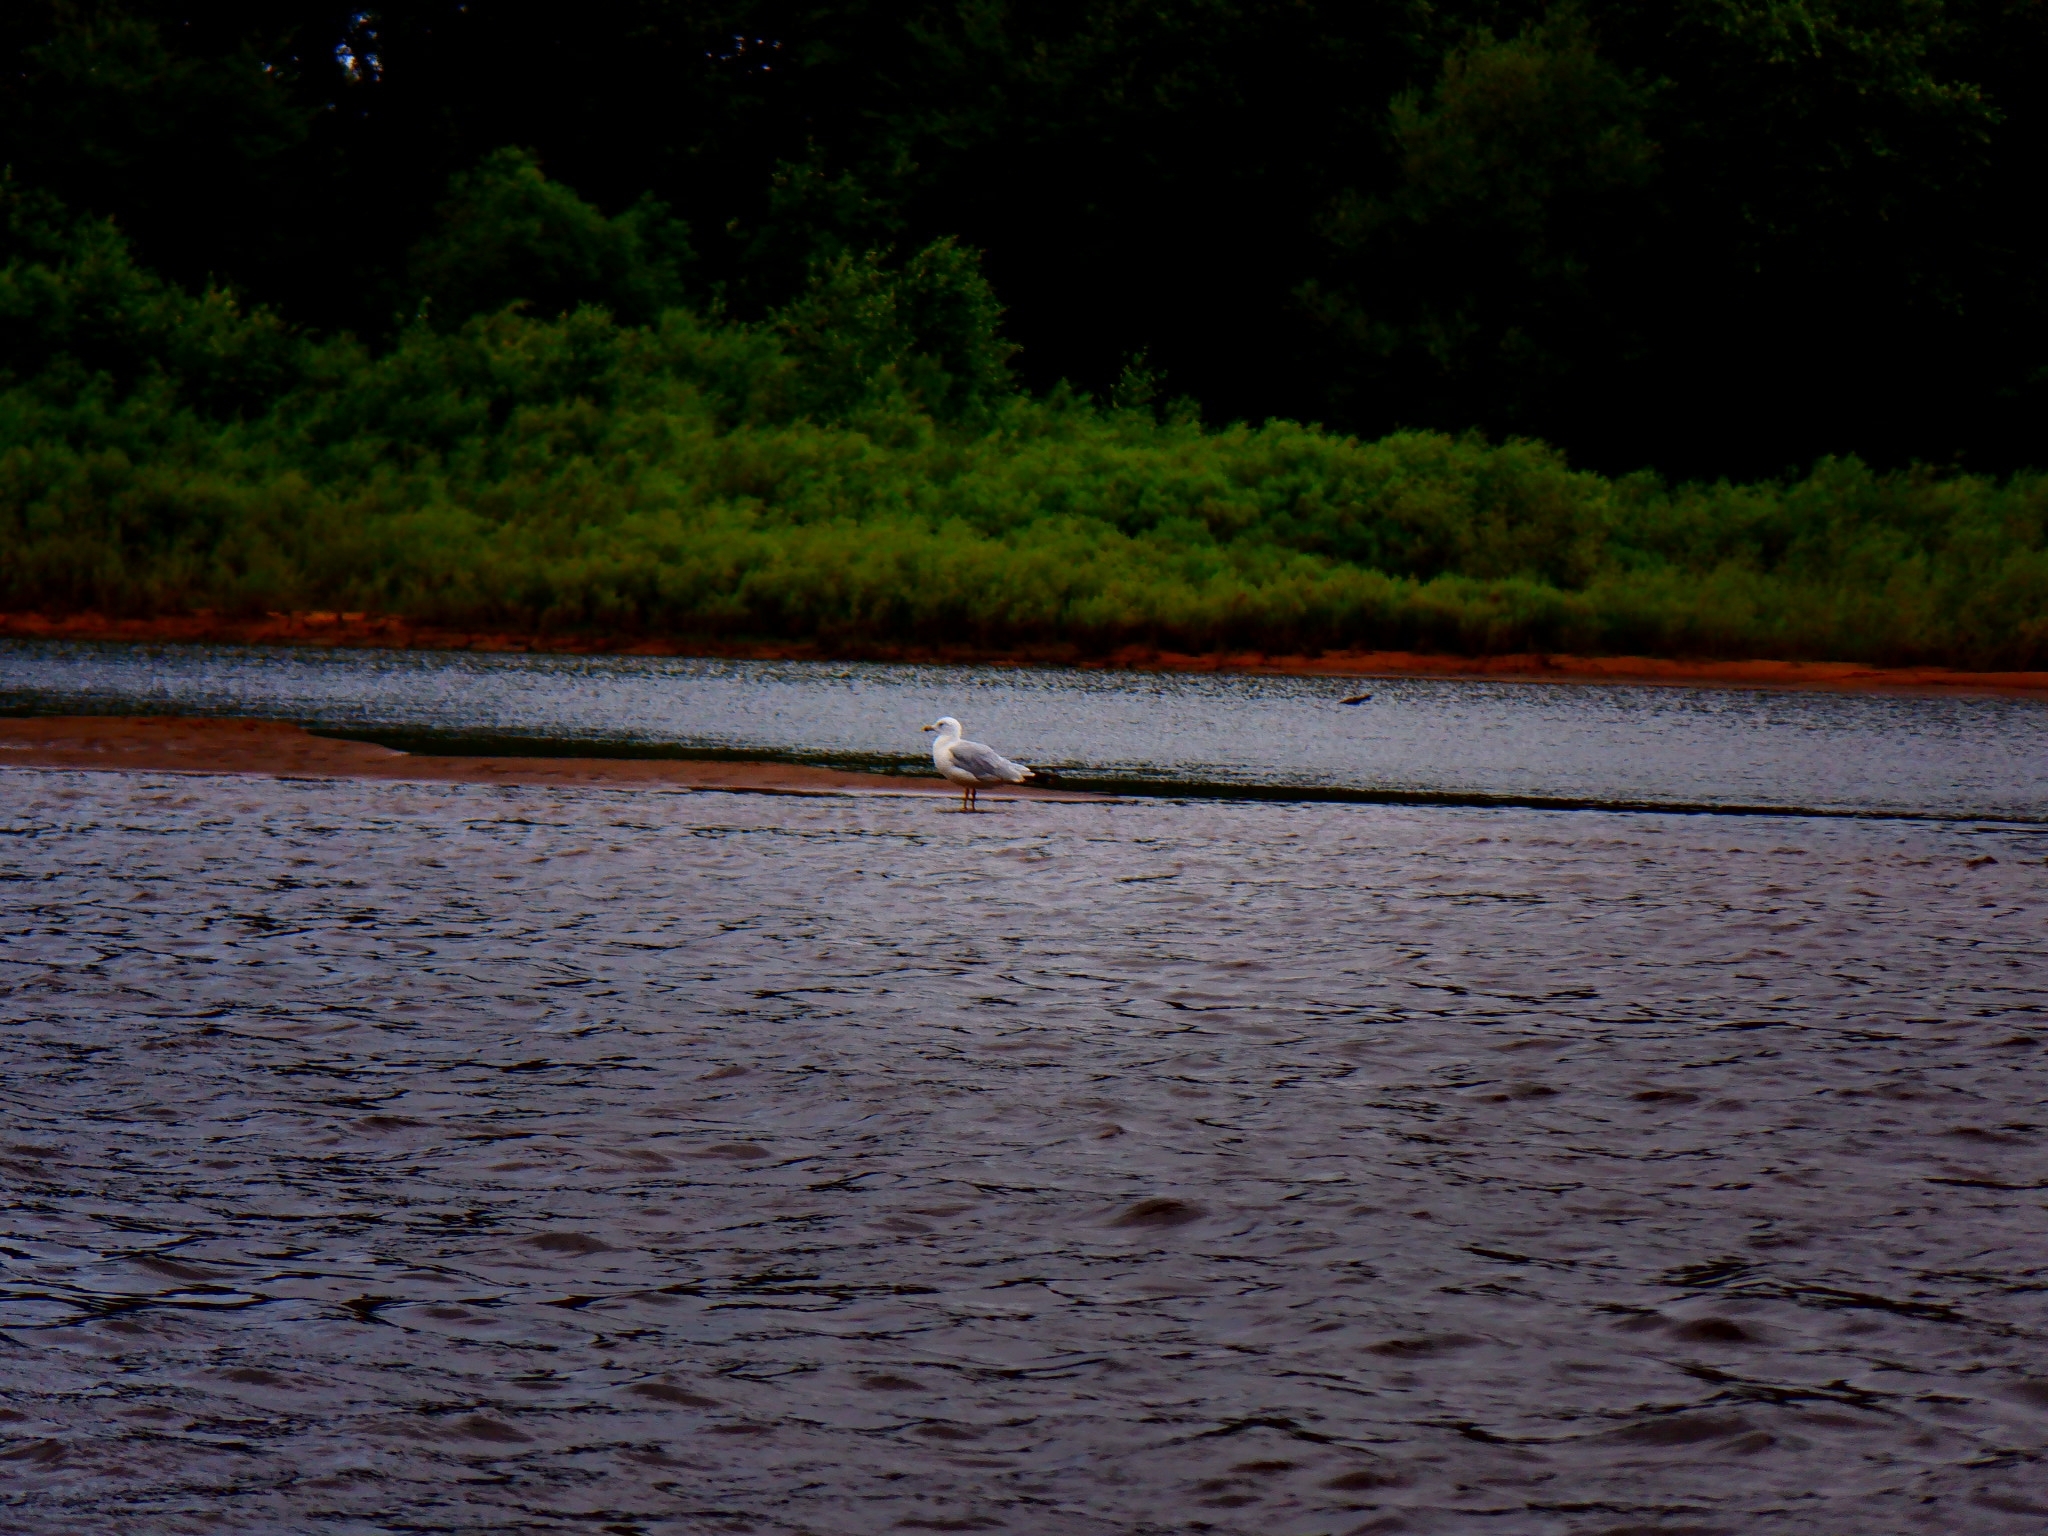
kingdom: Animalia
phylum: Chordata
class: Aves
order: Charadriiformes
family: Laridae
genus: Larus
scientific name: Larus delawarensis
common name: Ring-billed gull
